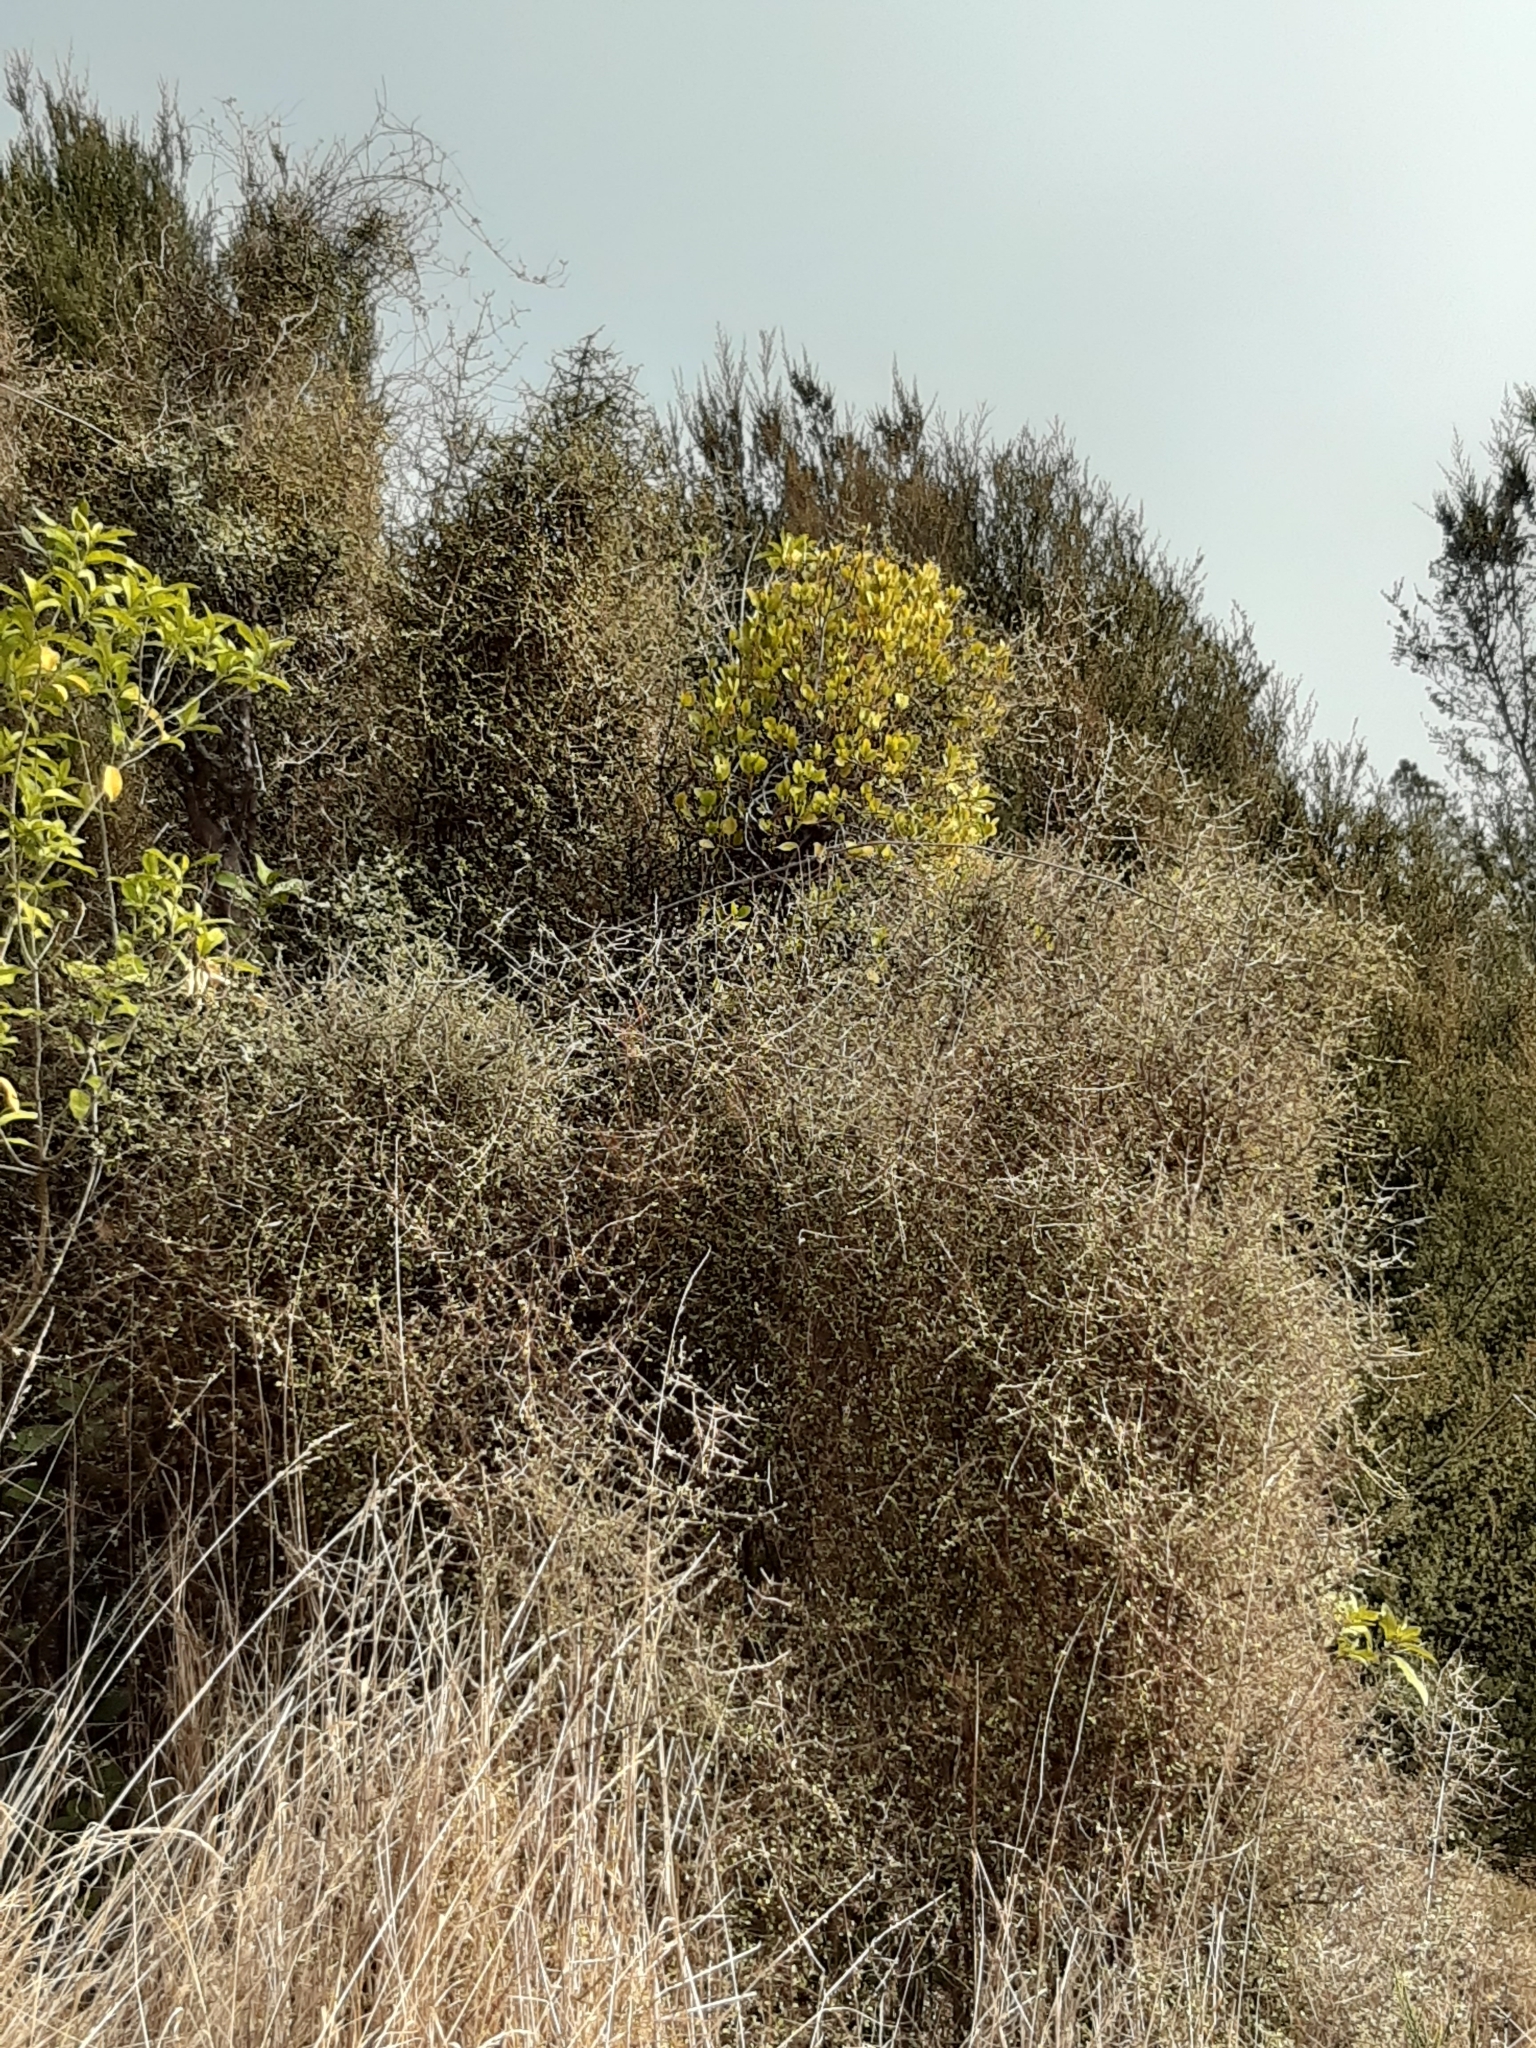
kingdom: Plantae
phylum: Tracheophyta
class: Magnoliopsida
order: Santalales
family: Loranthaceae
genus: Ileostylus
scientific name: Ileostylus micranthus
